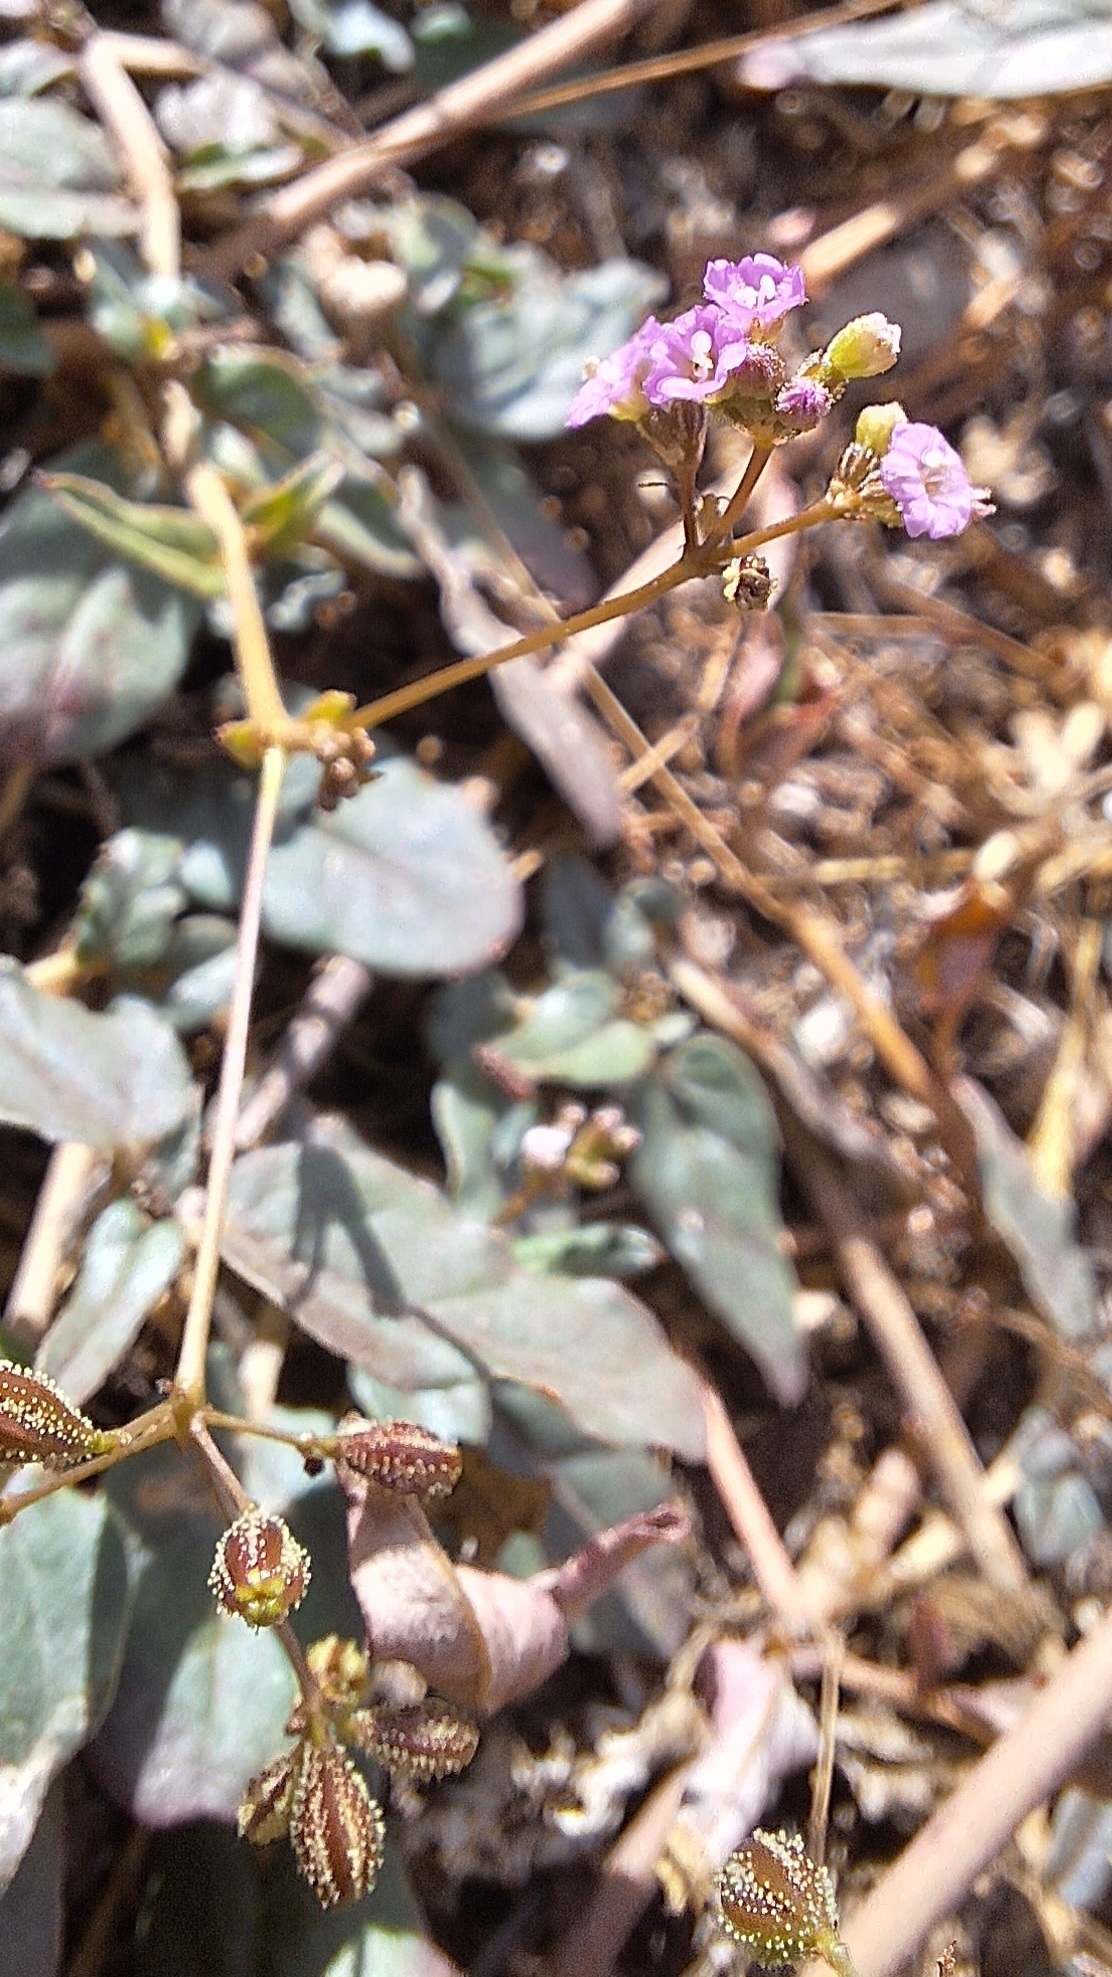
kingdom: Plantae
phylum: Tracheophyta
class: Magnoliopsida
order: Caryophyllales
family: Nyctaginaceae
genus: Boerhavia
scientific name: Boerhavia dominii
